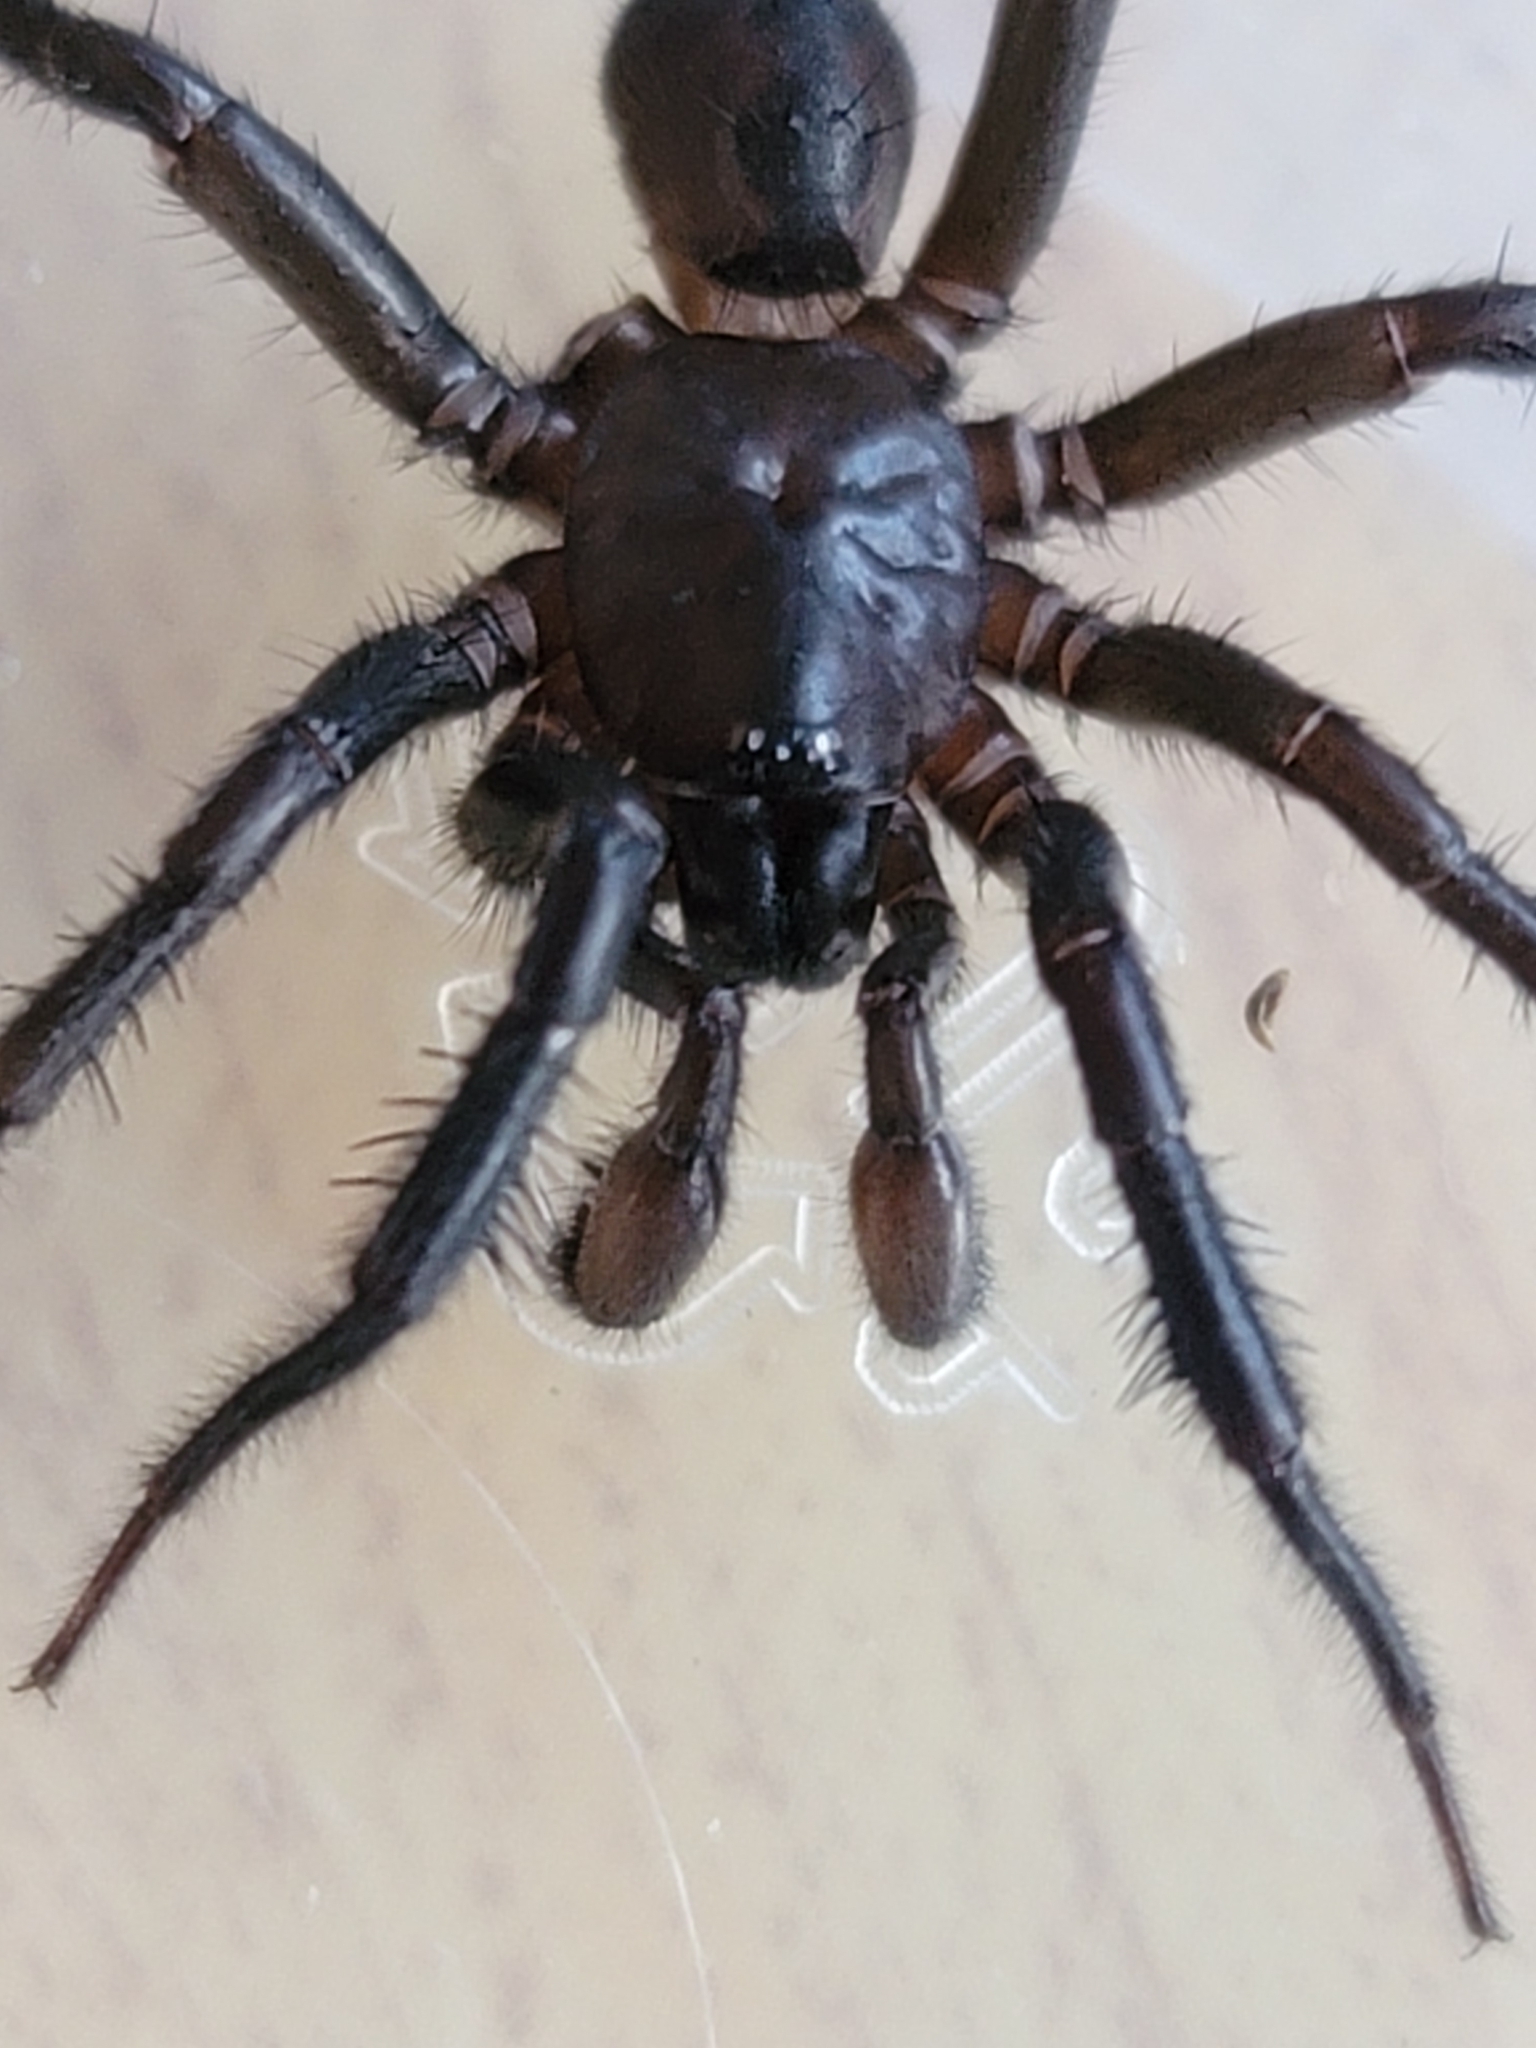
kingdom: Animalia
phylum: Arthropoda
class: Arachnida
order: Araneae
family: Euctenizidae
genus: Myrmekiaphila
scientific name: Myrmekiaphila foliata
